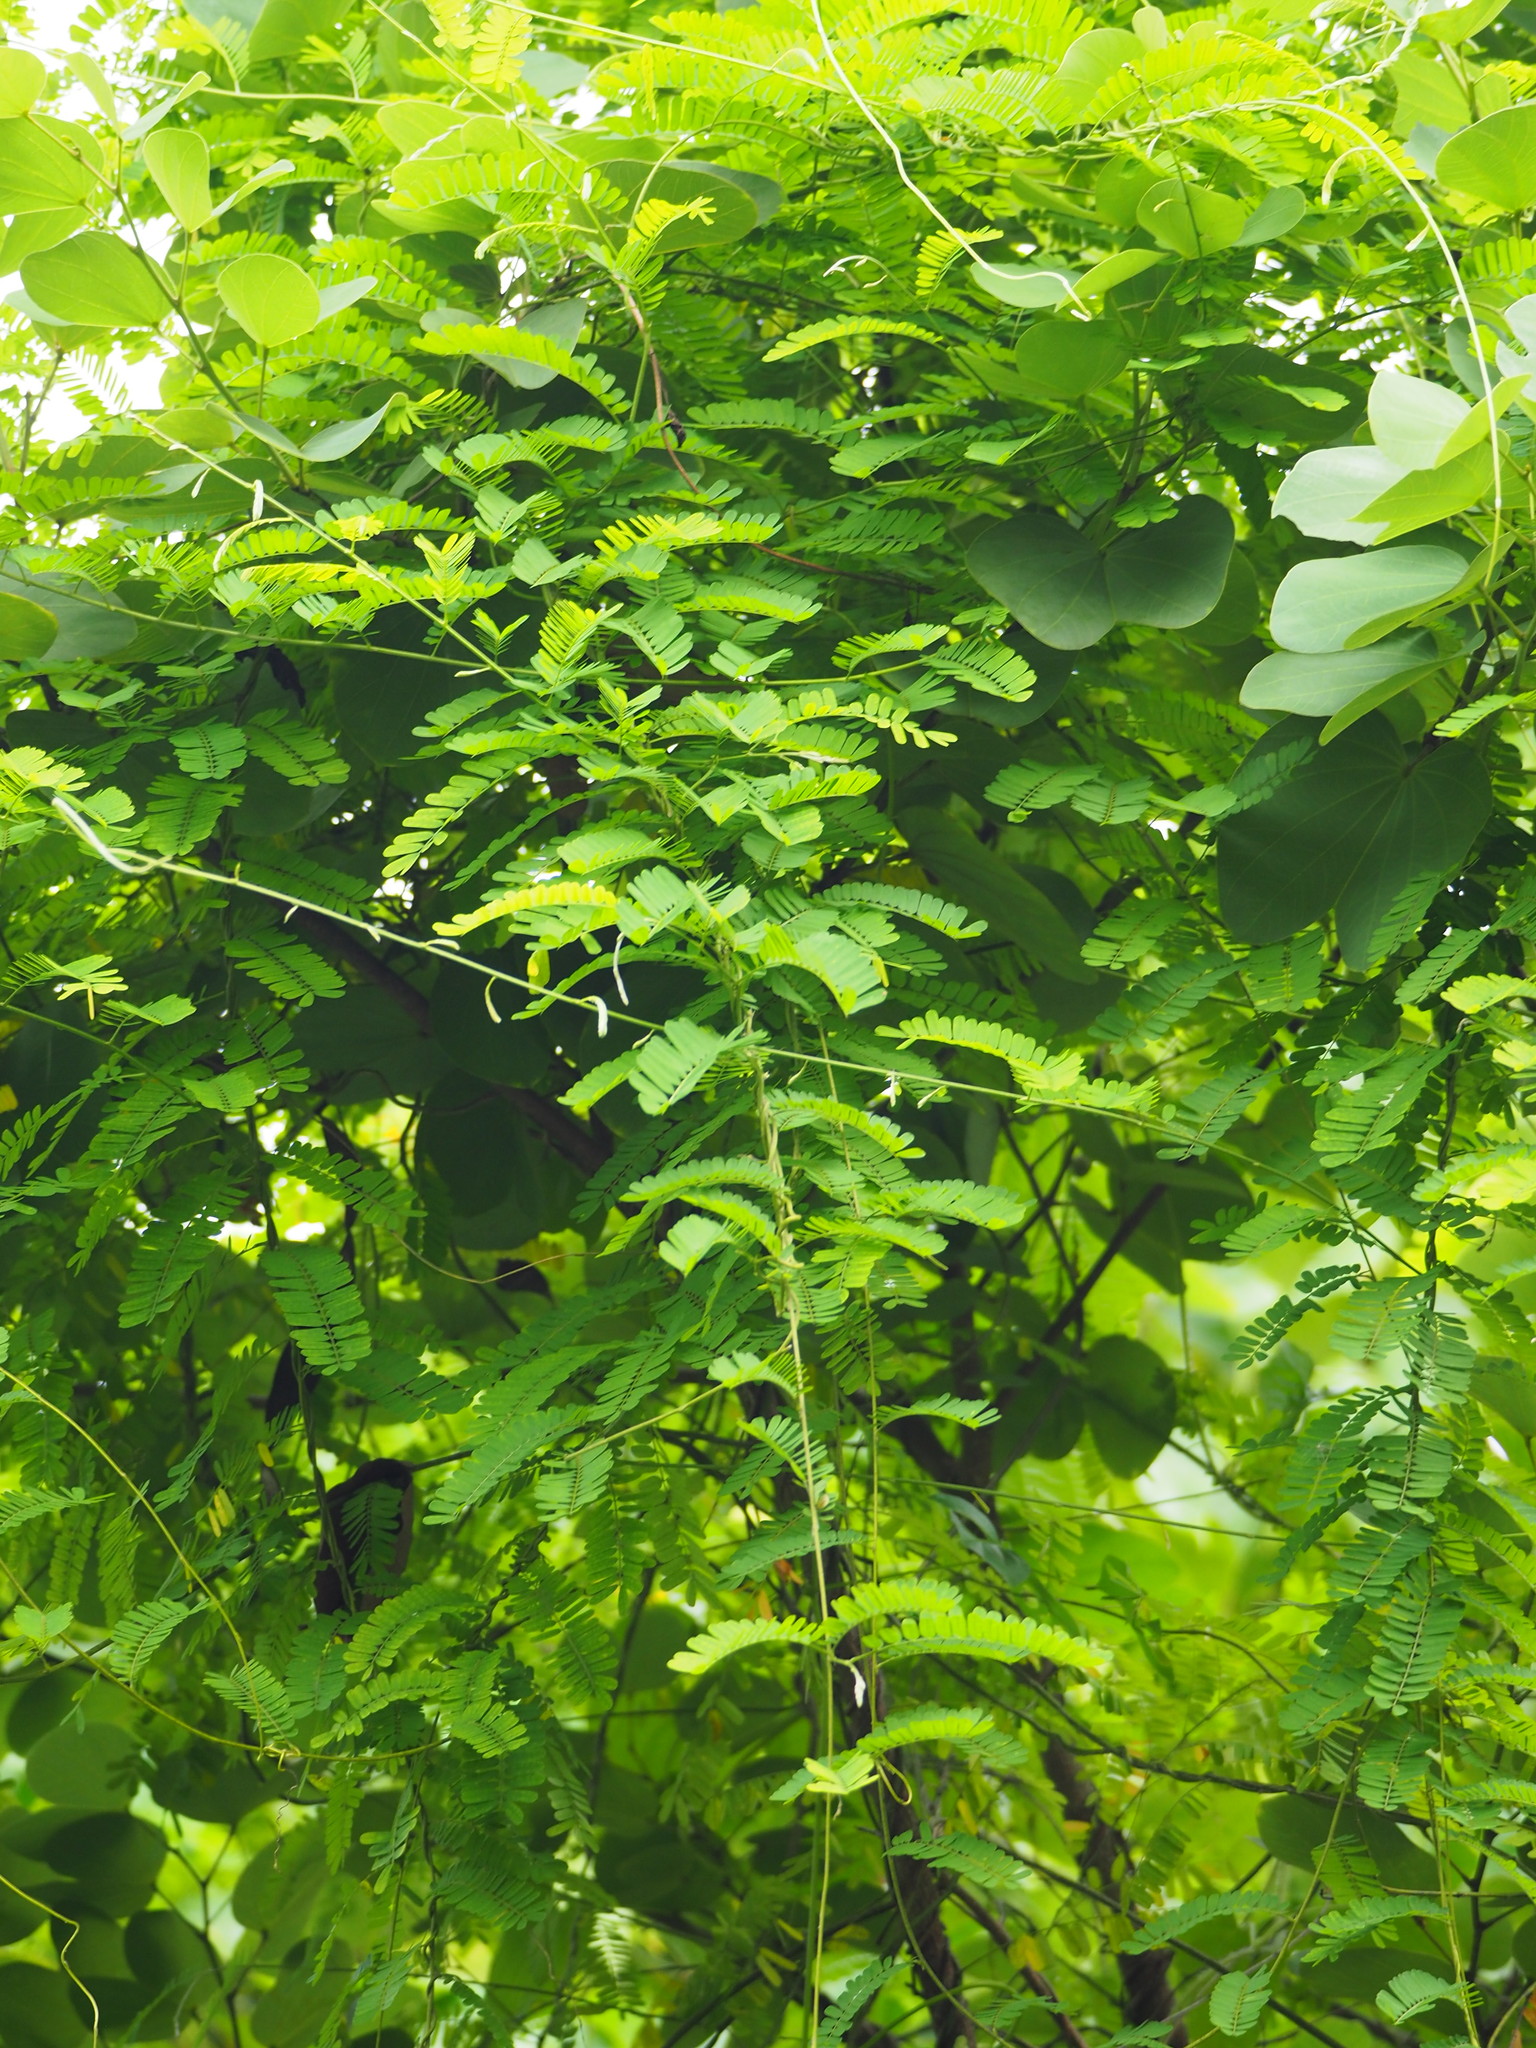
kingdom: Plantae
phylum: Tracheophyta
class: Magnoliopsida
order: Fabales
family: Fabaceae
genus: Abrus
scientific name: Abrus precatorius
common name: Rosarypea
